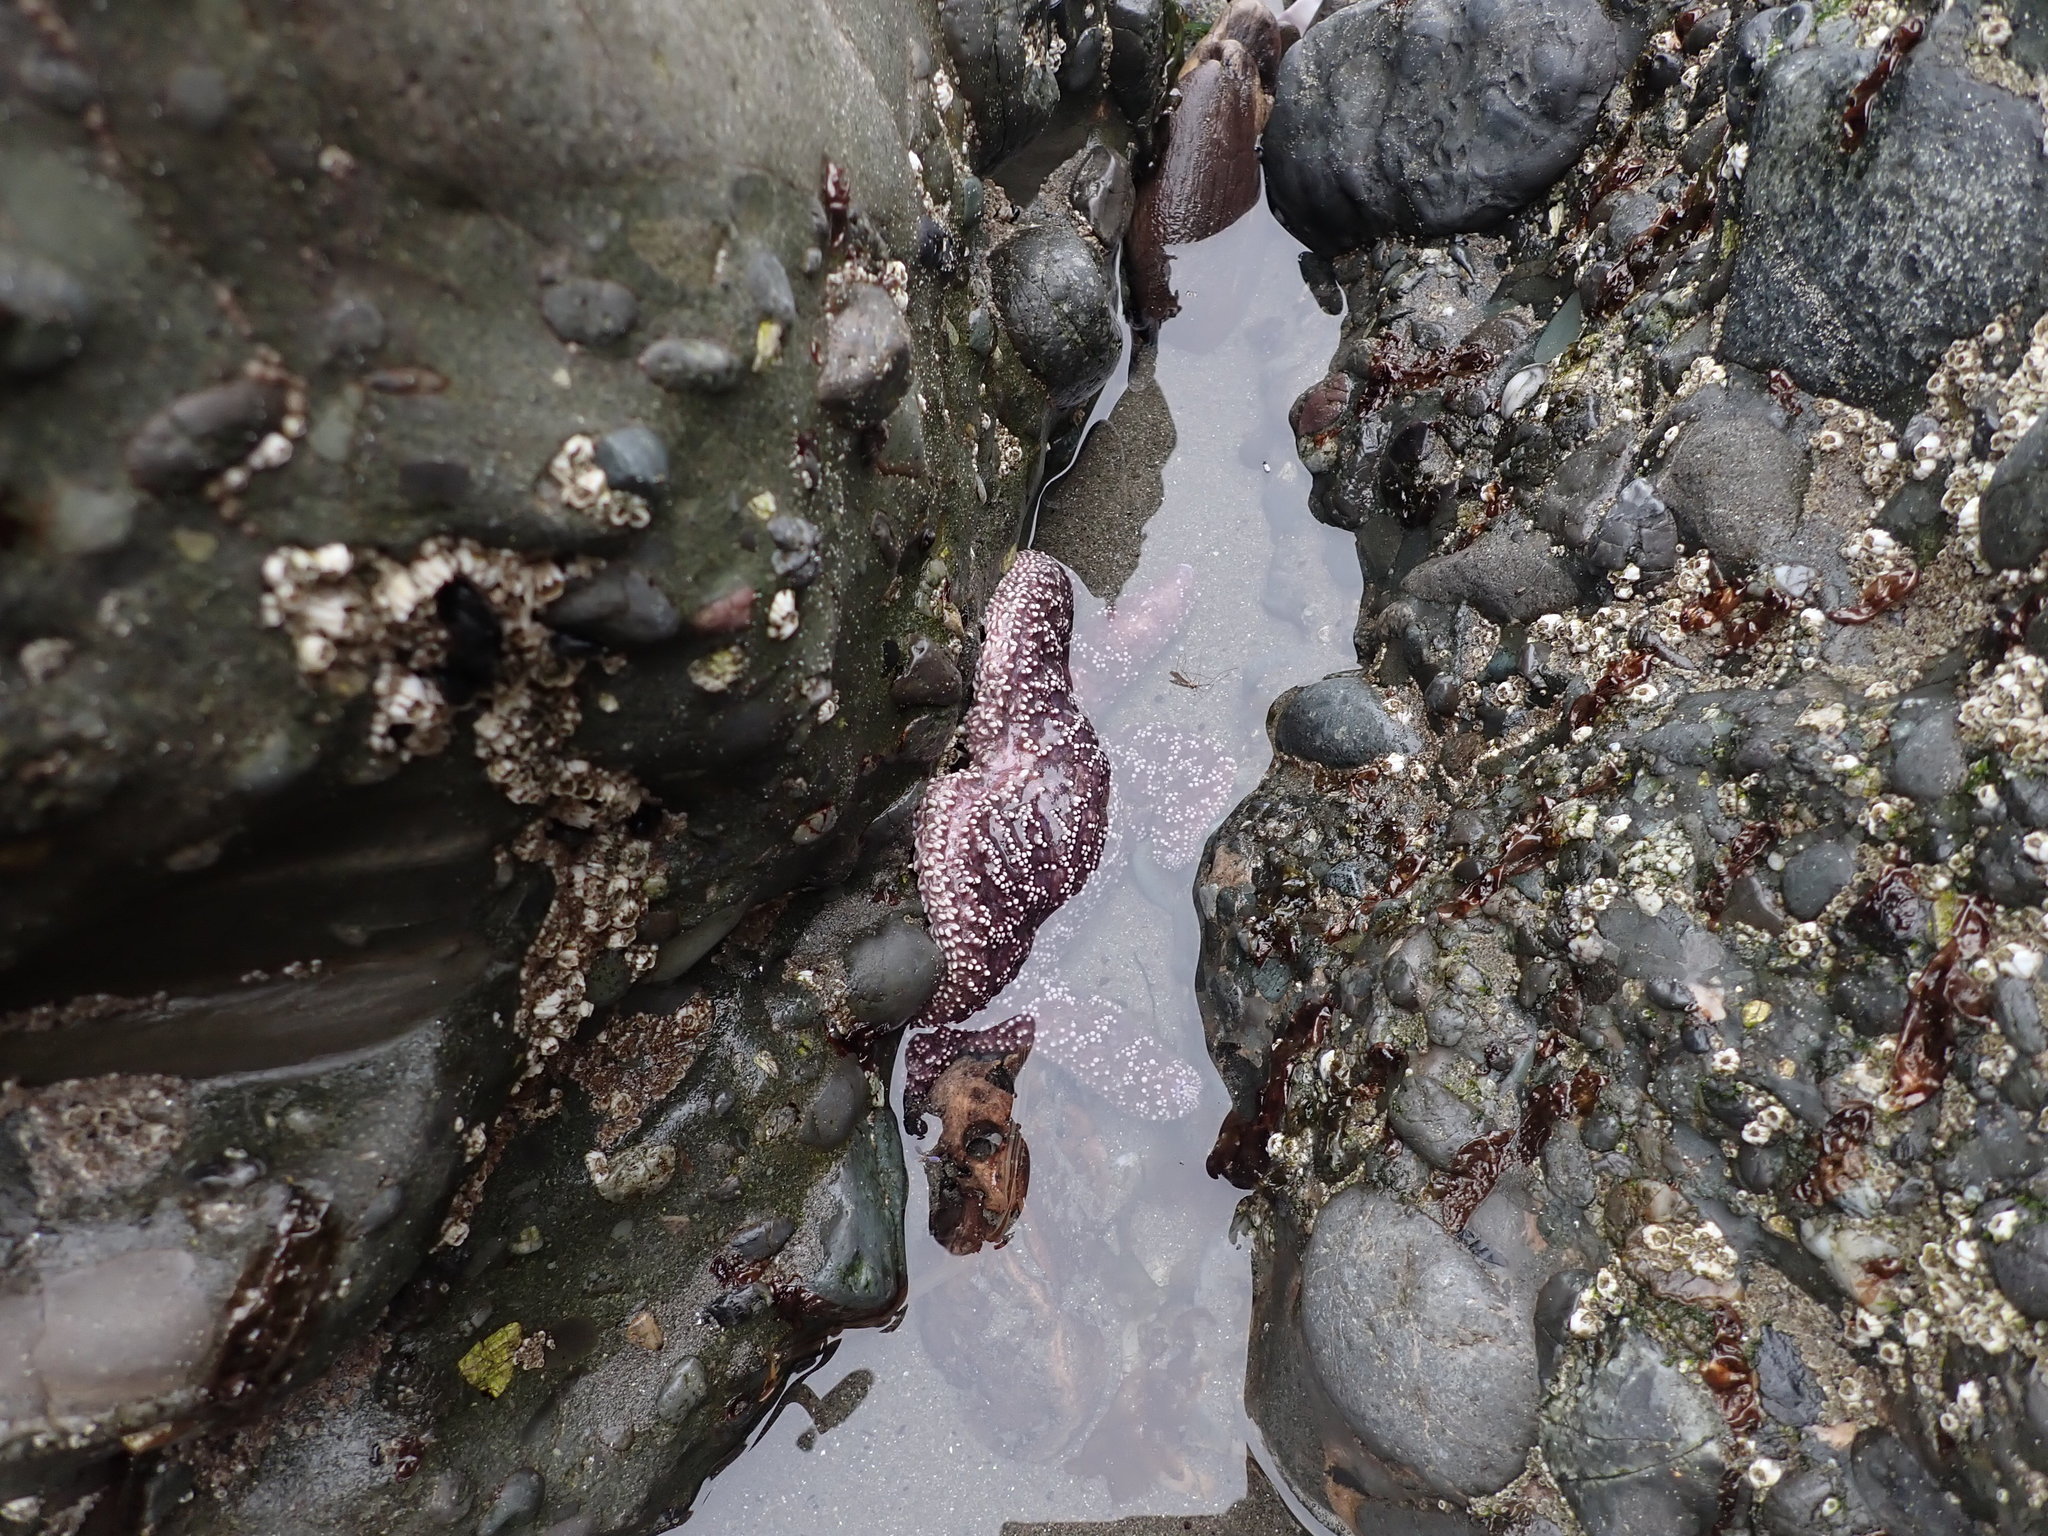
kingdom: Animalia
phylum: Echinodermata
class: Asteroidea
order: Forcipulatida
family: Asteriidae
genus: Pisaster
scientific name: Pisaster ochraceus
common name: Ochre stars
